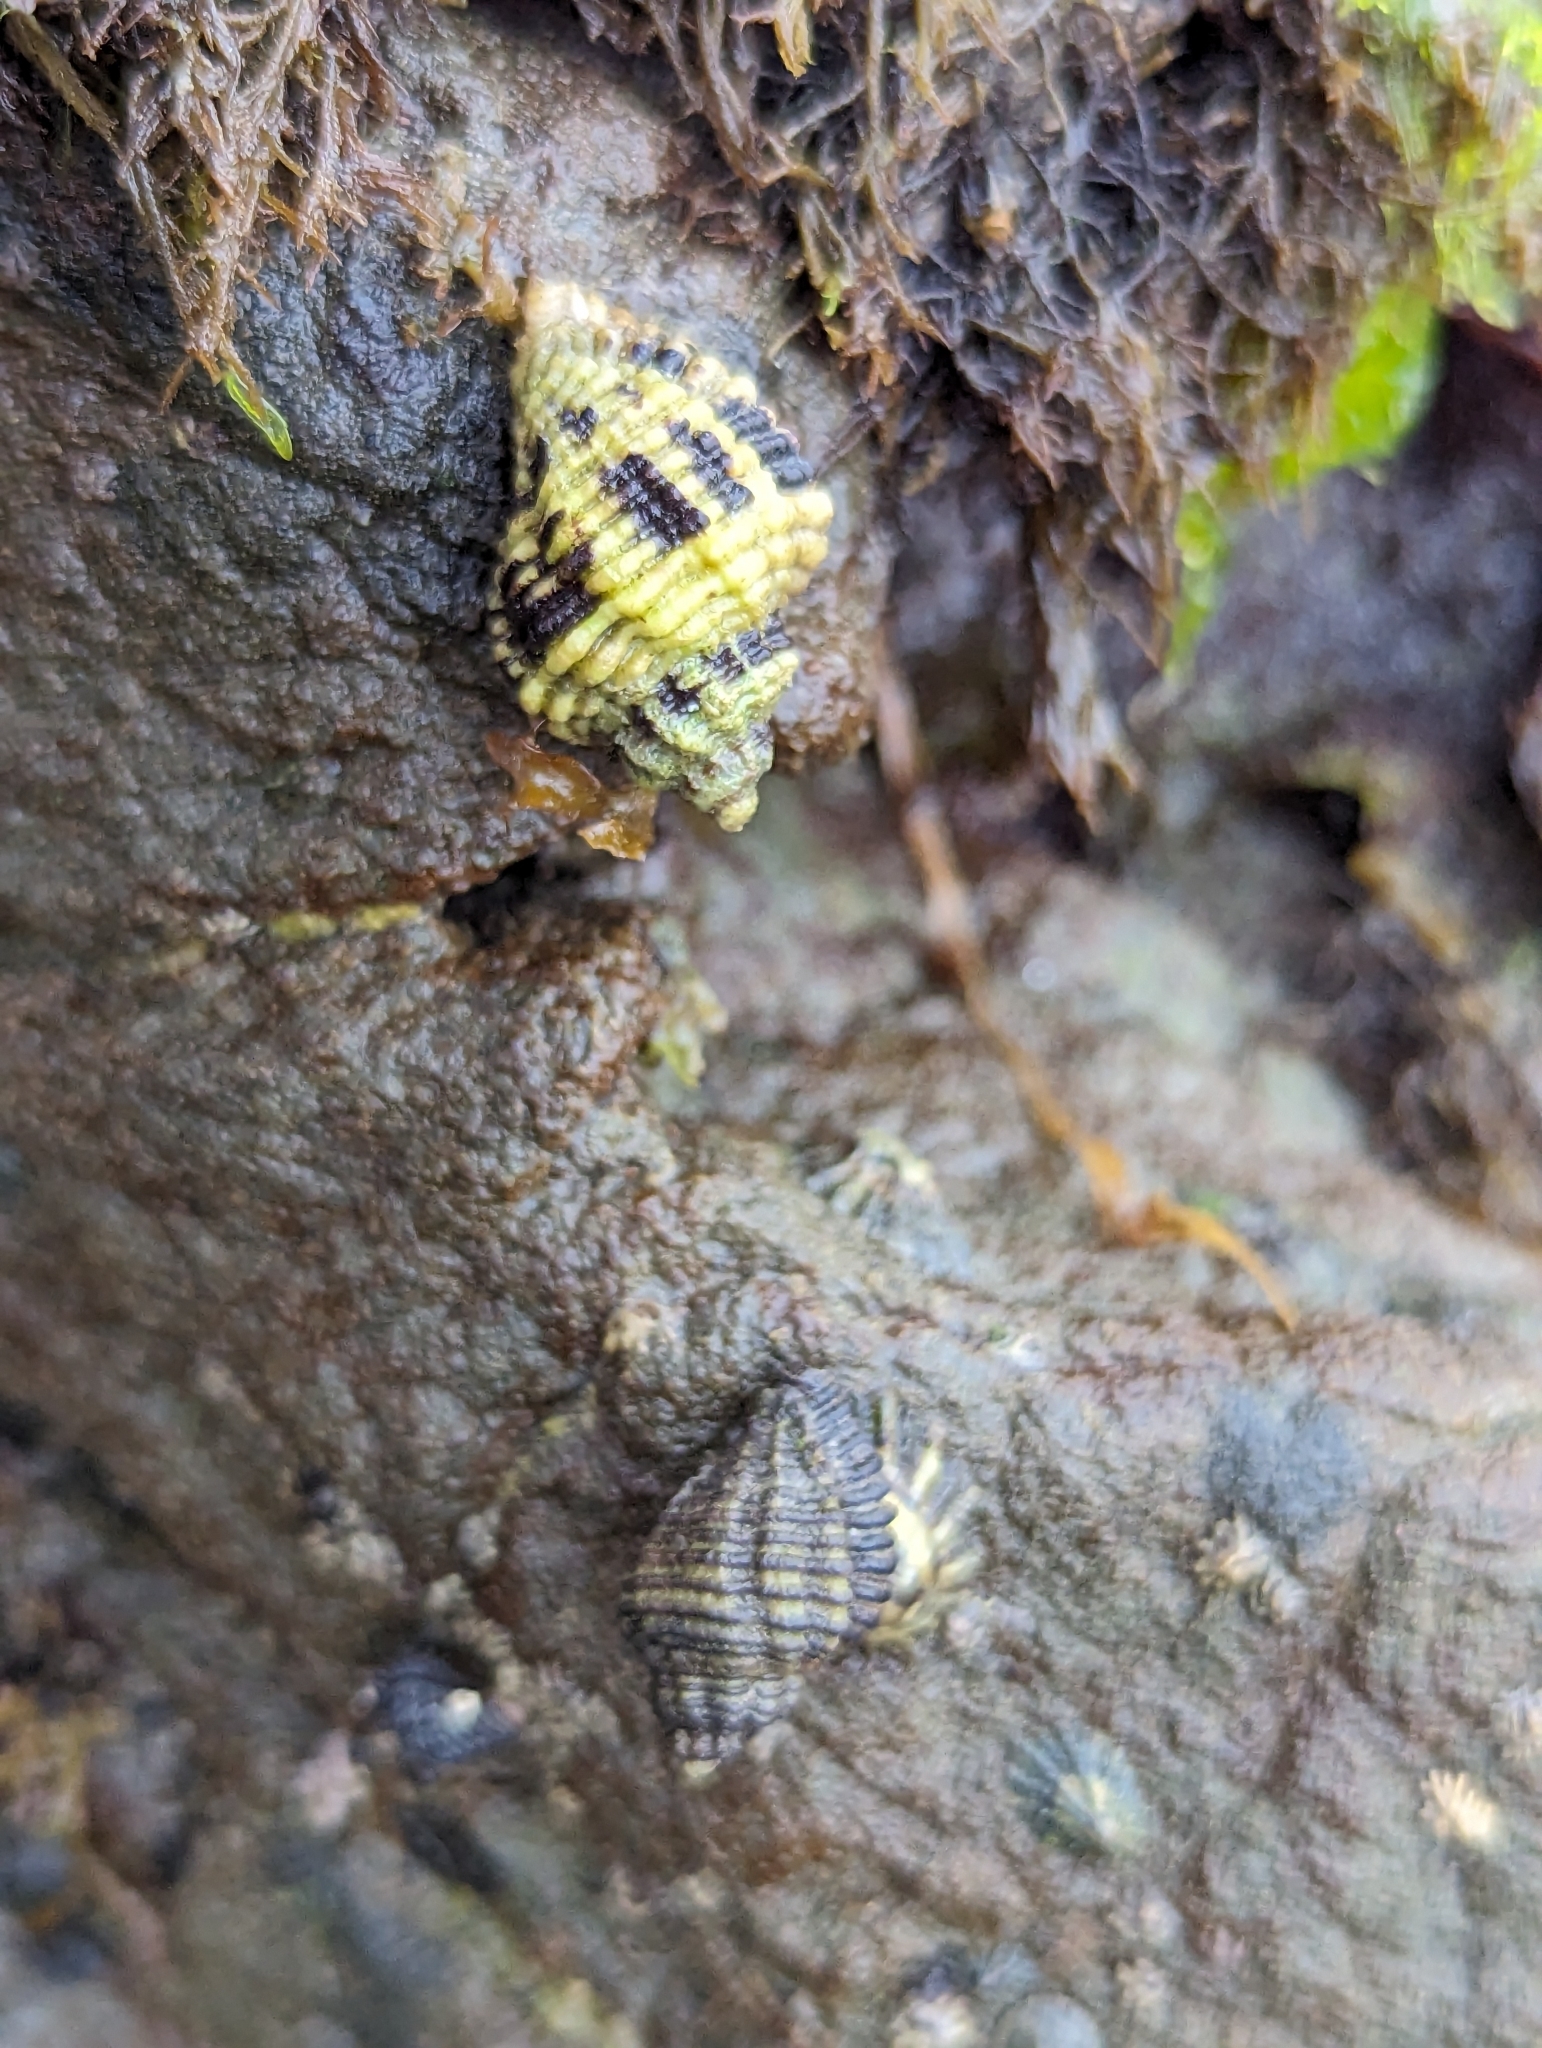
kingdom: Animalia
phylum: Mollusca
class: Gastropoda
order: Neogastropoda
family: Muricidae
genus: Paciocinebrina
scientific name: Paciocinebrina circumtexta
